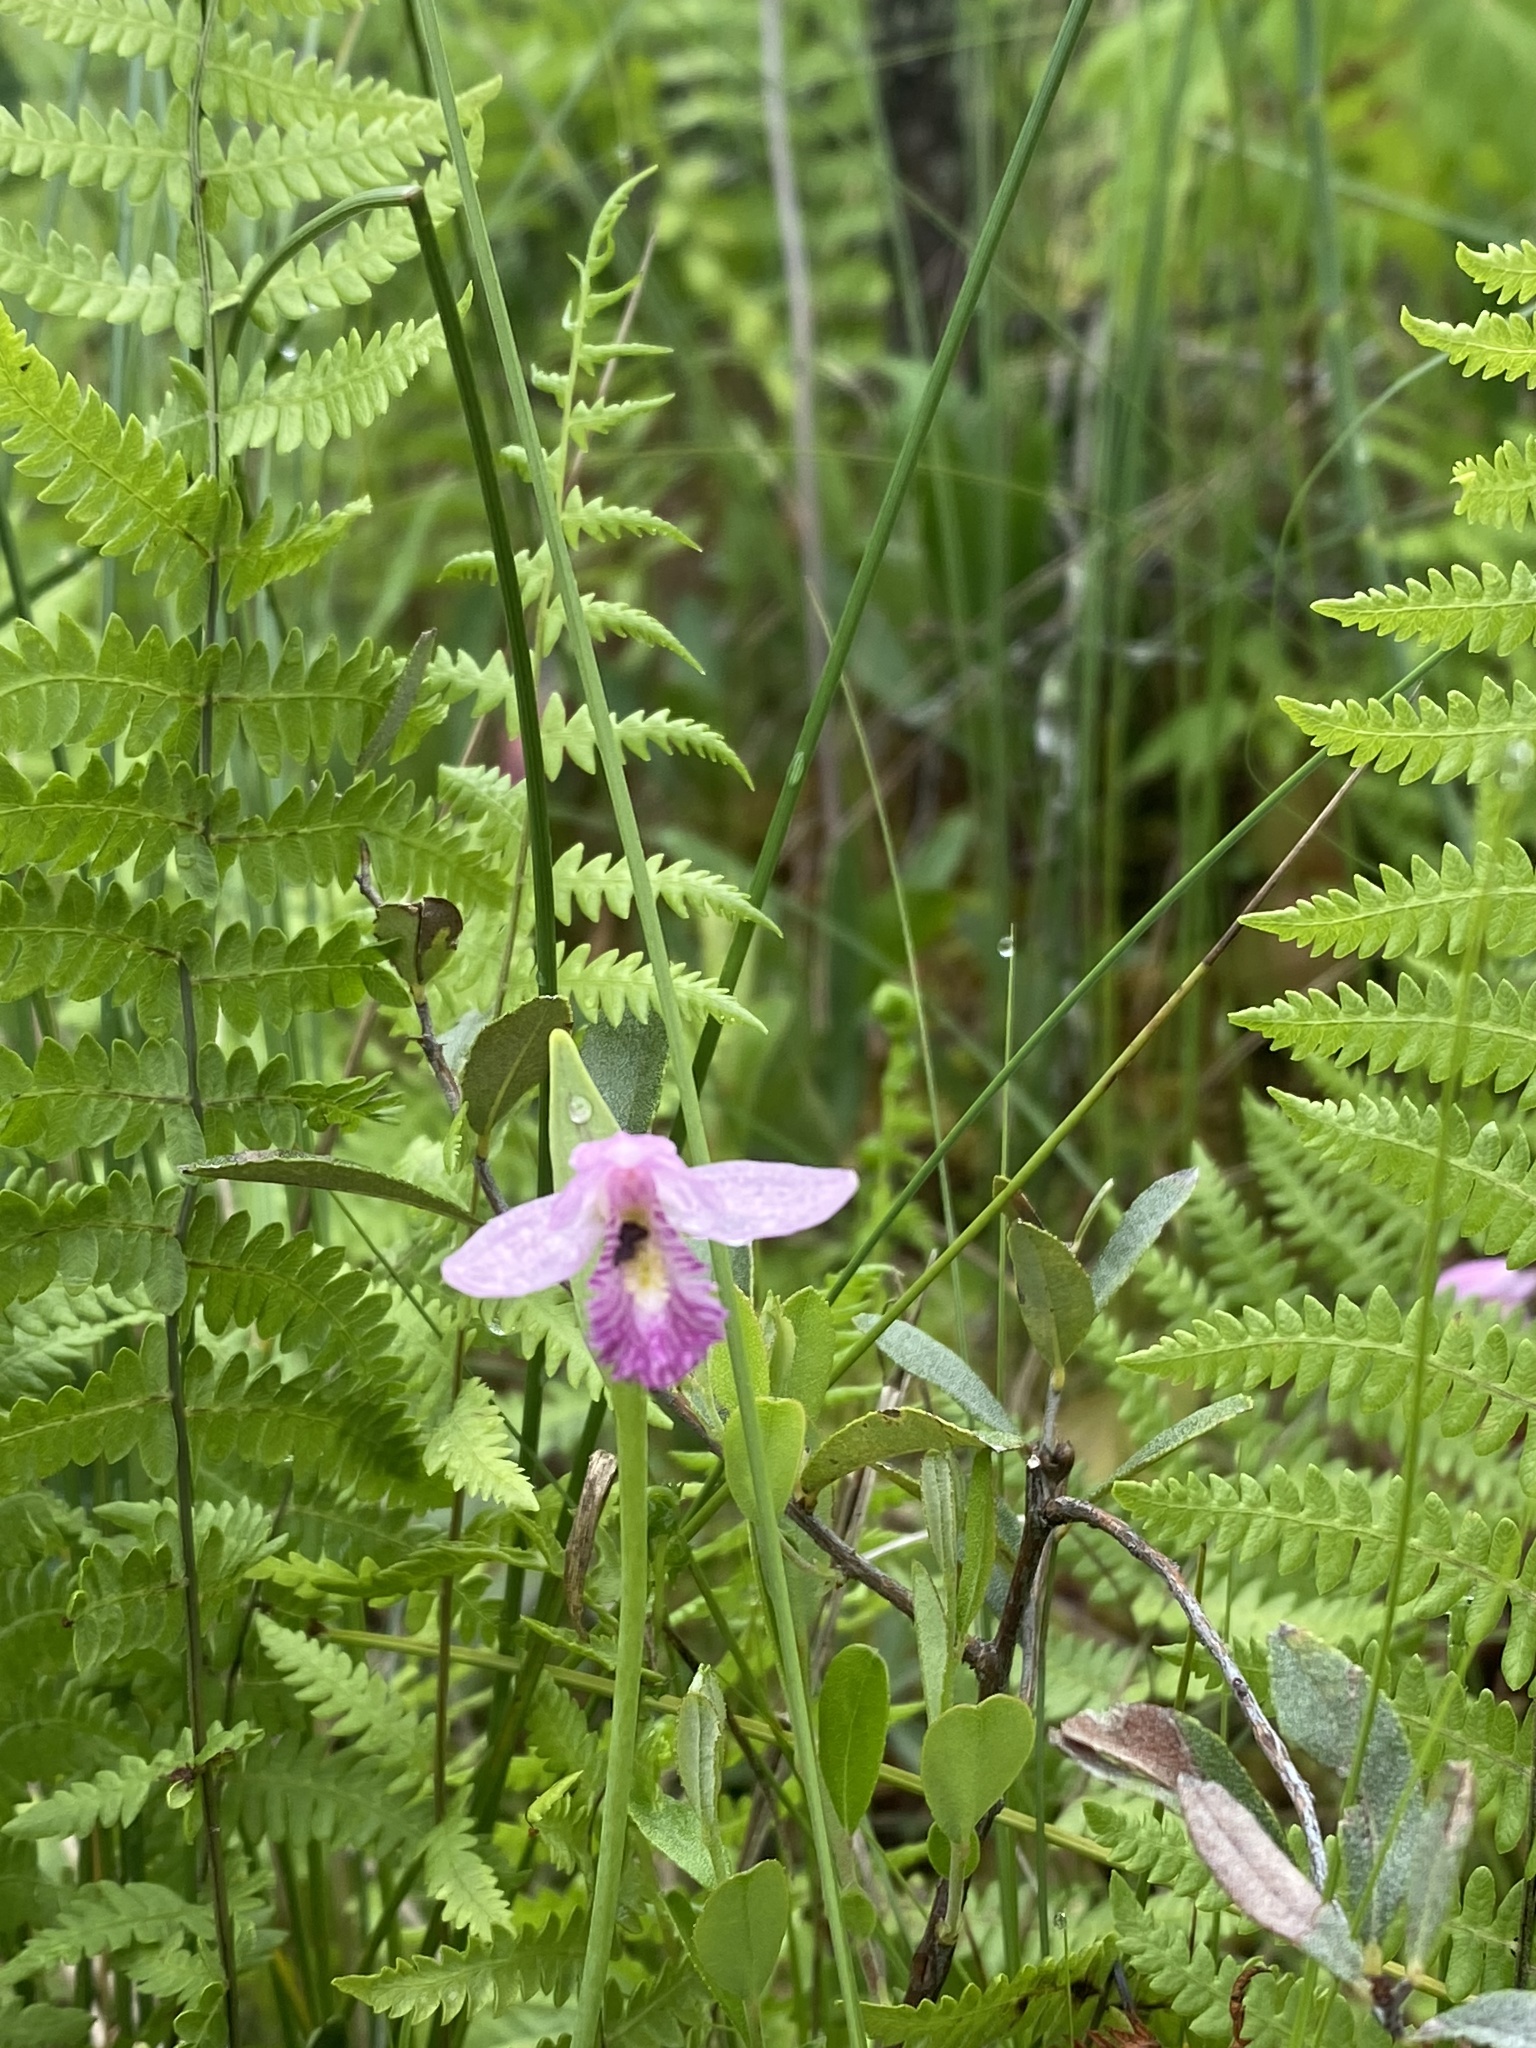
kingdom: Plantae
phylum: Tracheophyta
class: Liliopsida
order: Asparagales
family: Orchidaceae
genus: Pogonia
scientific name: Pogonia ophioglossoides
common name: Rose pogonia
